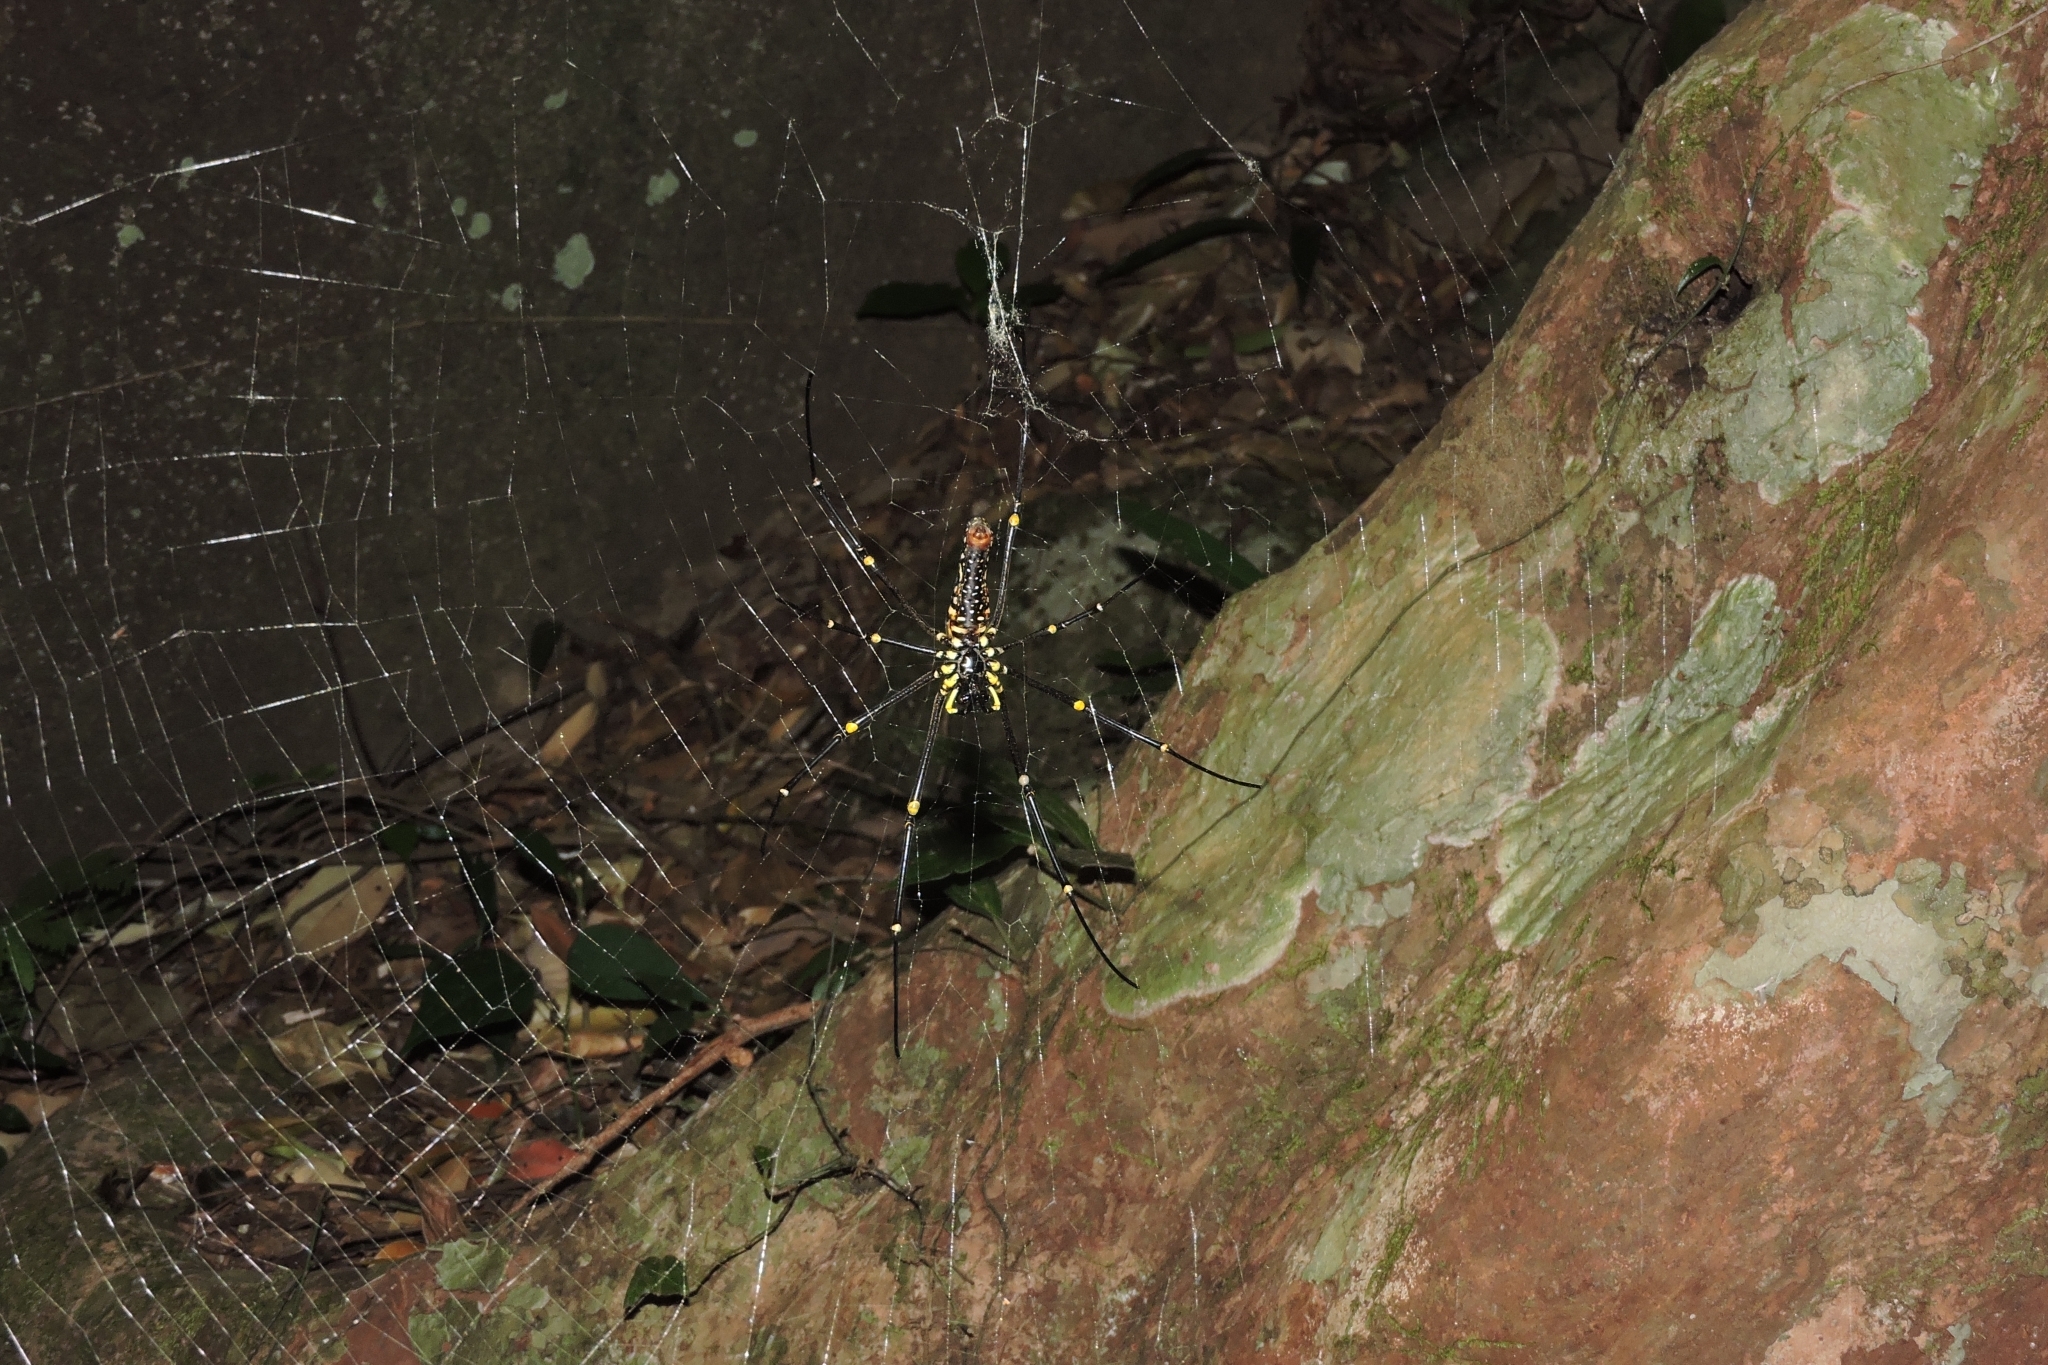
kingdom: Animalia
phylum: Arthropoda
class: Arachnida
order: Araneae
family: Araneidae
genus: Nephila
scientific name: Nephila pilipes
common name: Giant golden orb weaver
